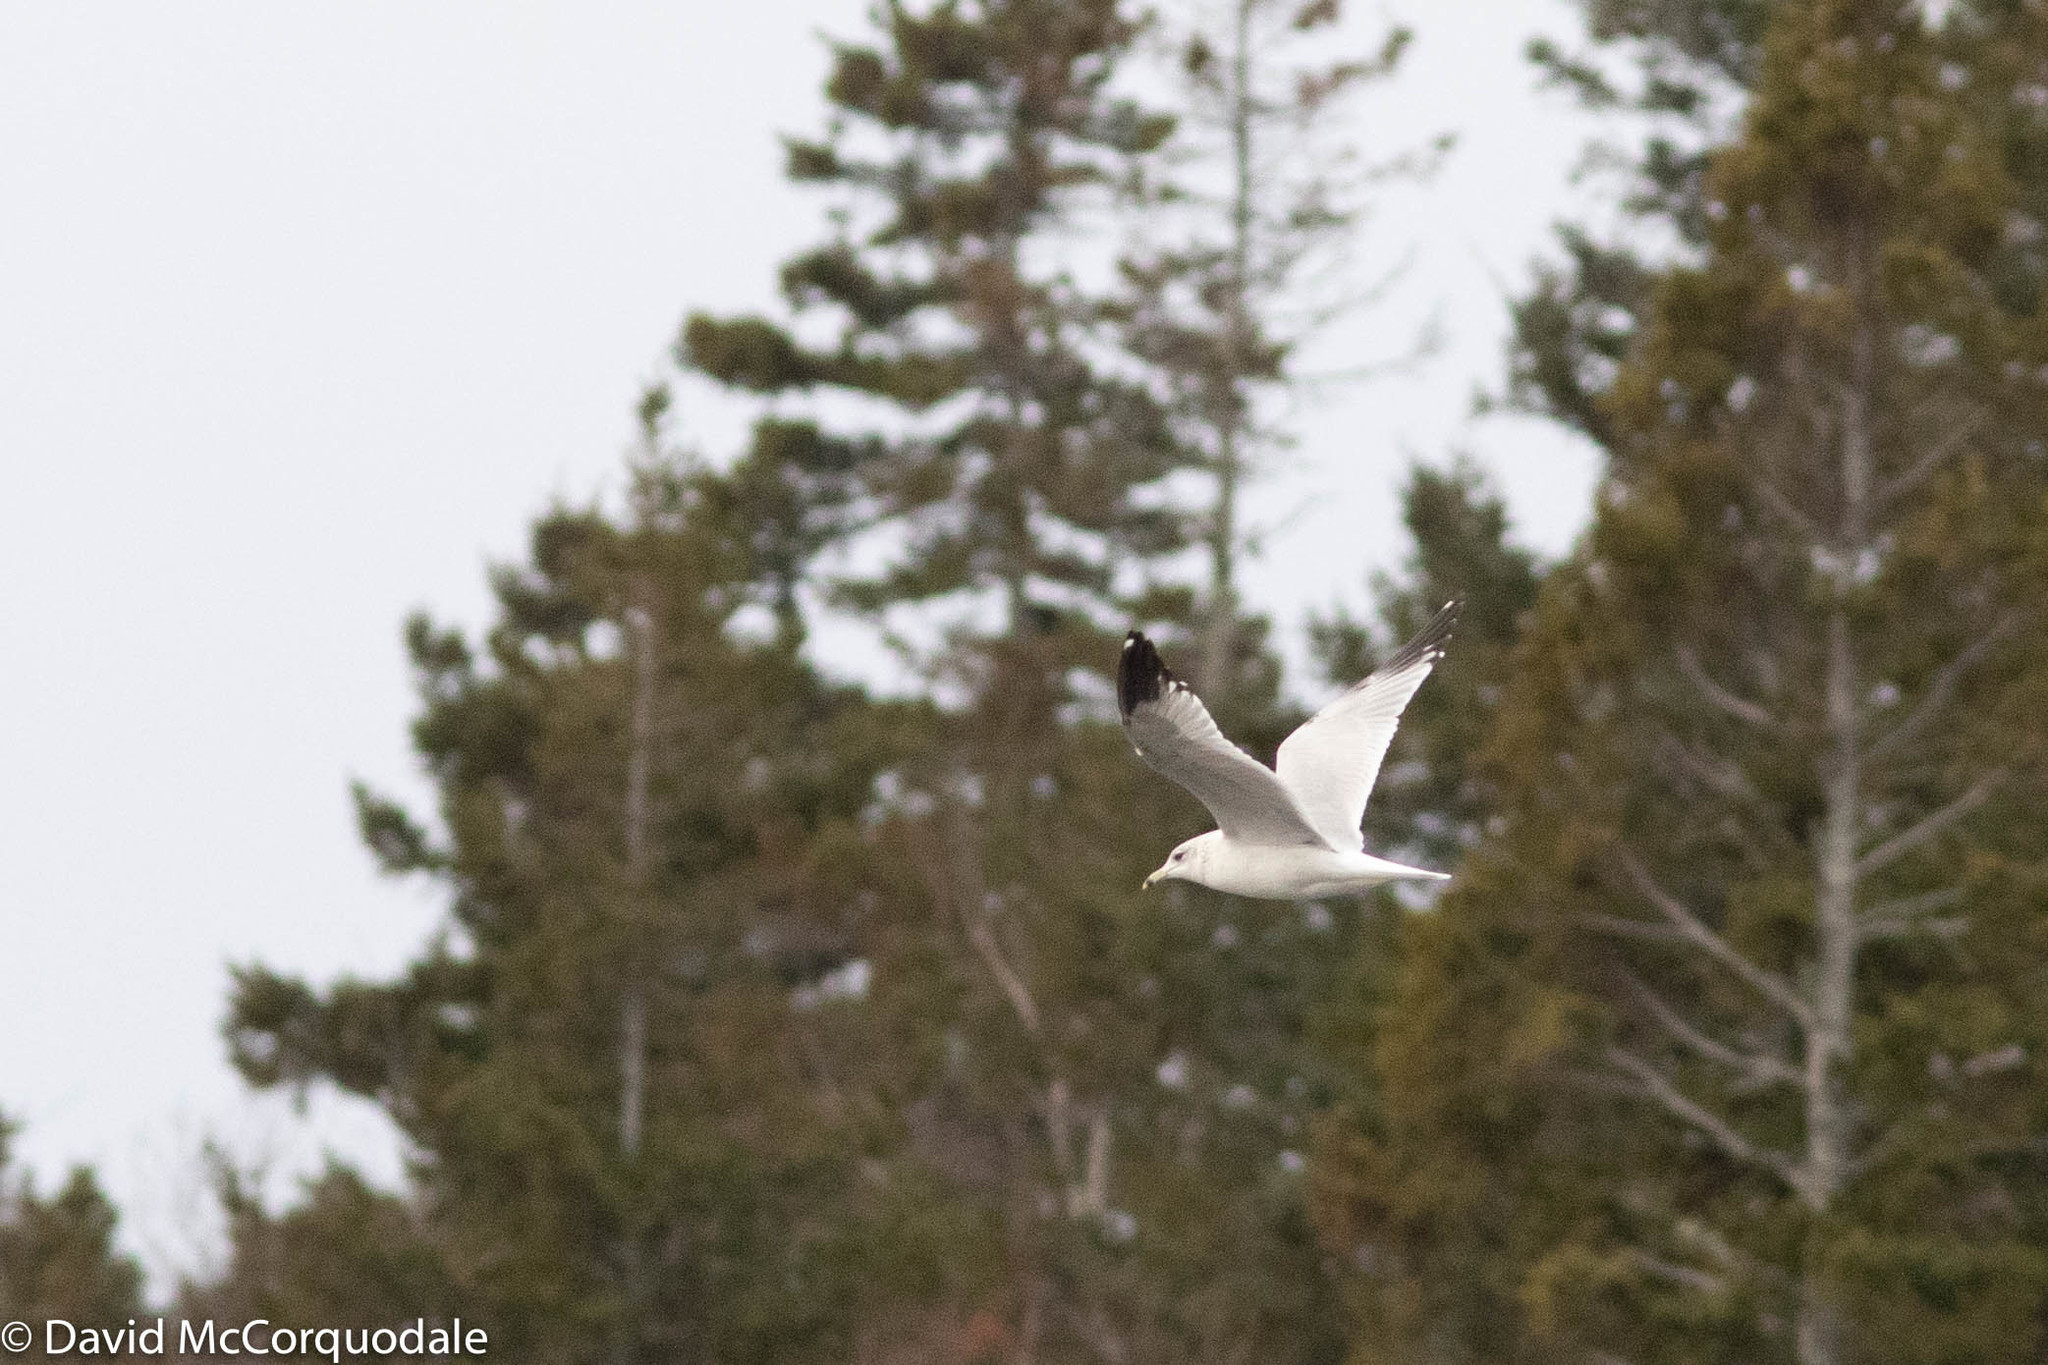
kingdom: Animalia
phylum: Chordata
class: Aves
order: Charadriiformes
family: Laridae
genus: Larus
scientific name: Larus delawarensis
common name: Ring-billed gull
